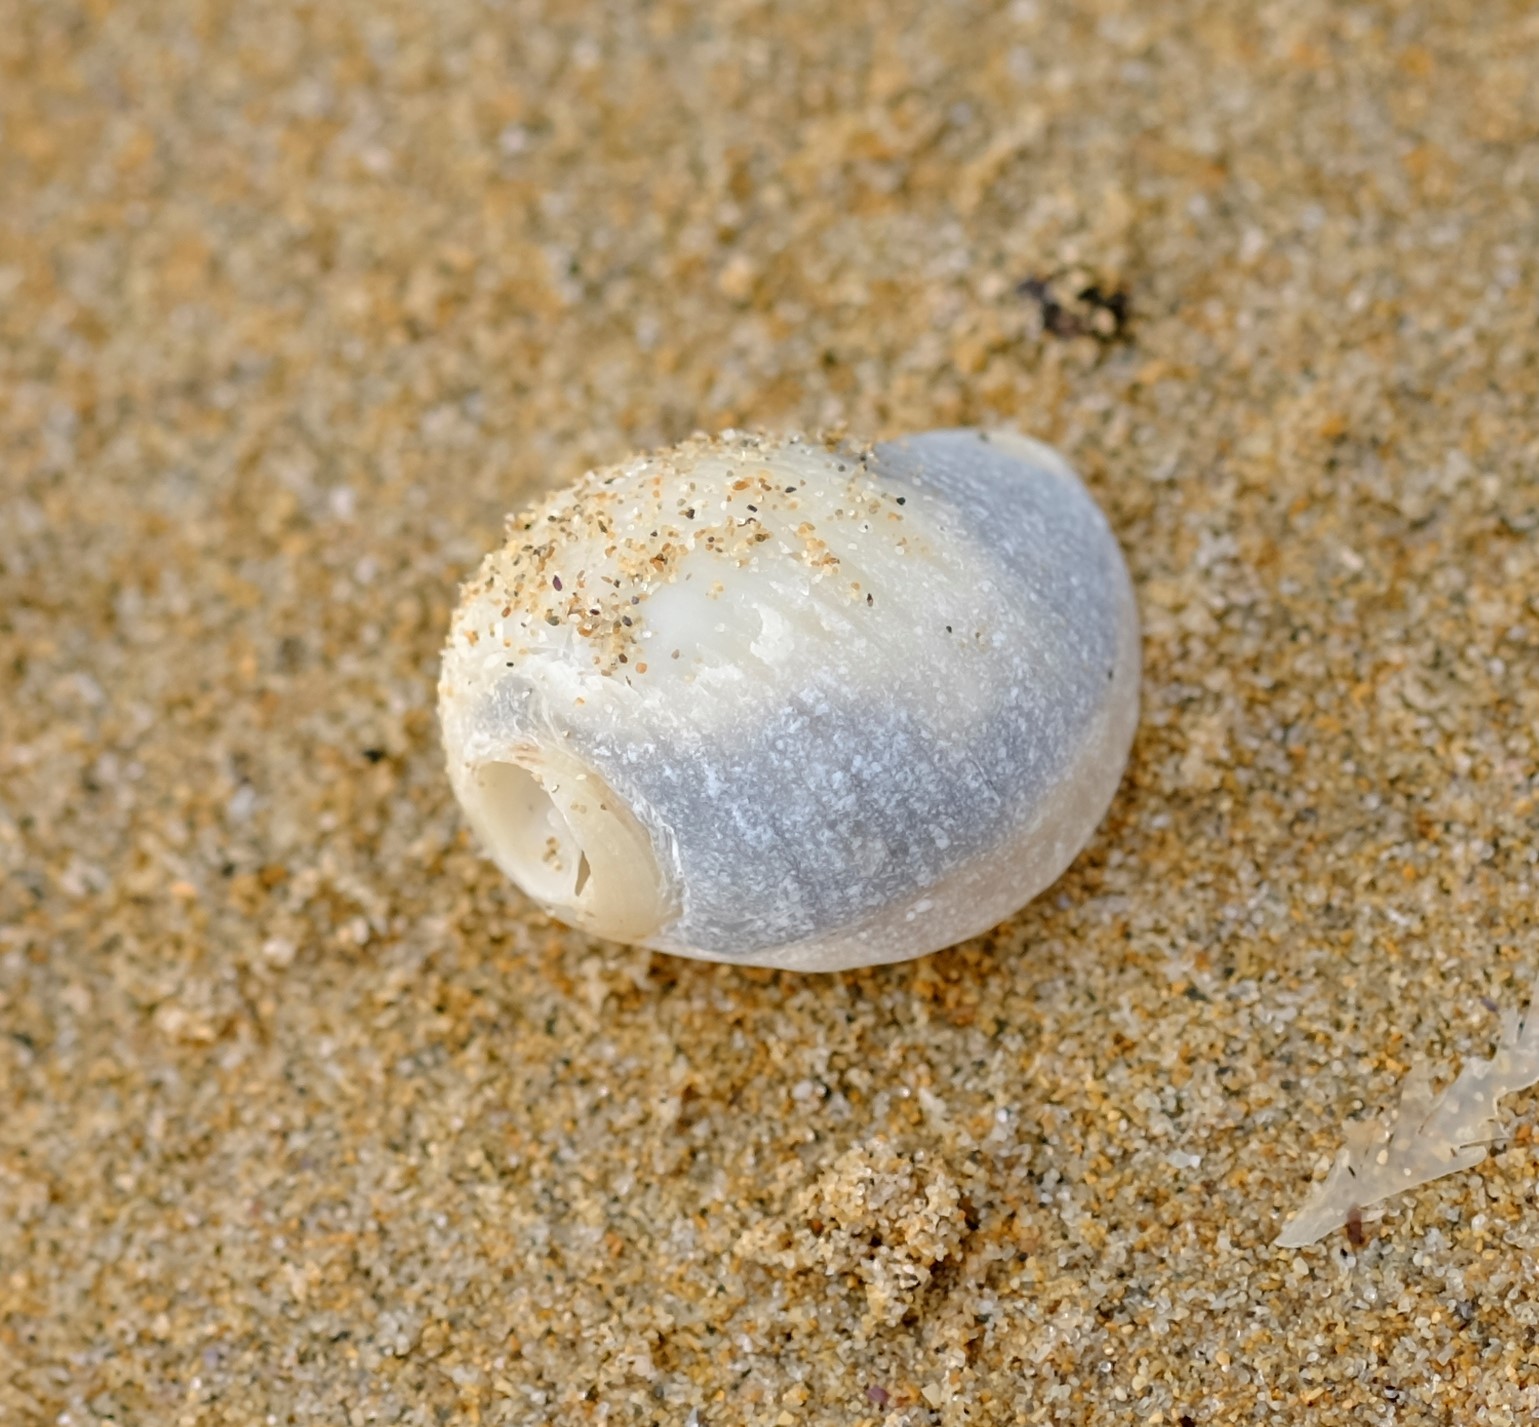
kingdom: Animalia
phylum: Mollusca
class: Gastropoda
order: Neogastropoda
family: Muricidae
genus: Dicathais
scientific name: Dicathais orbita
